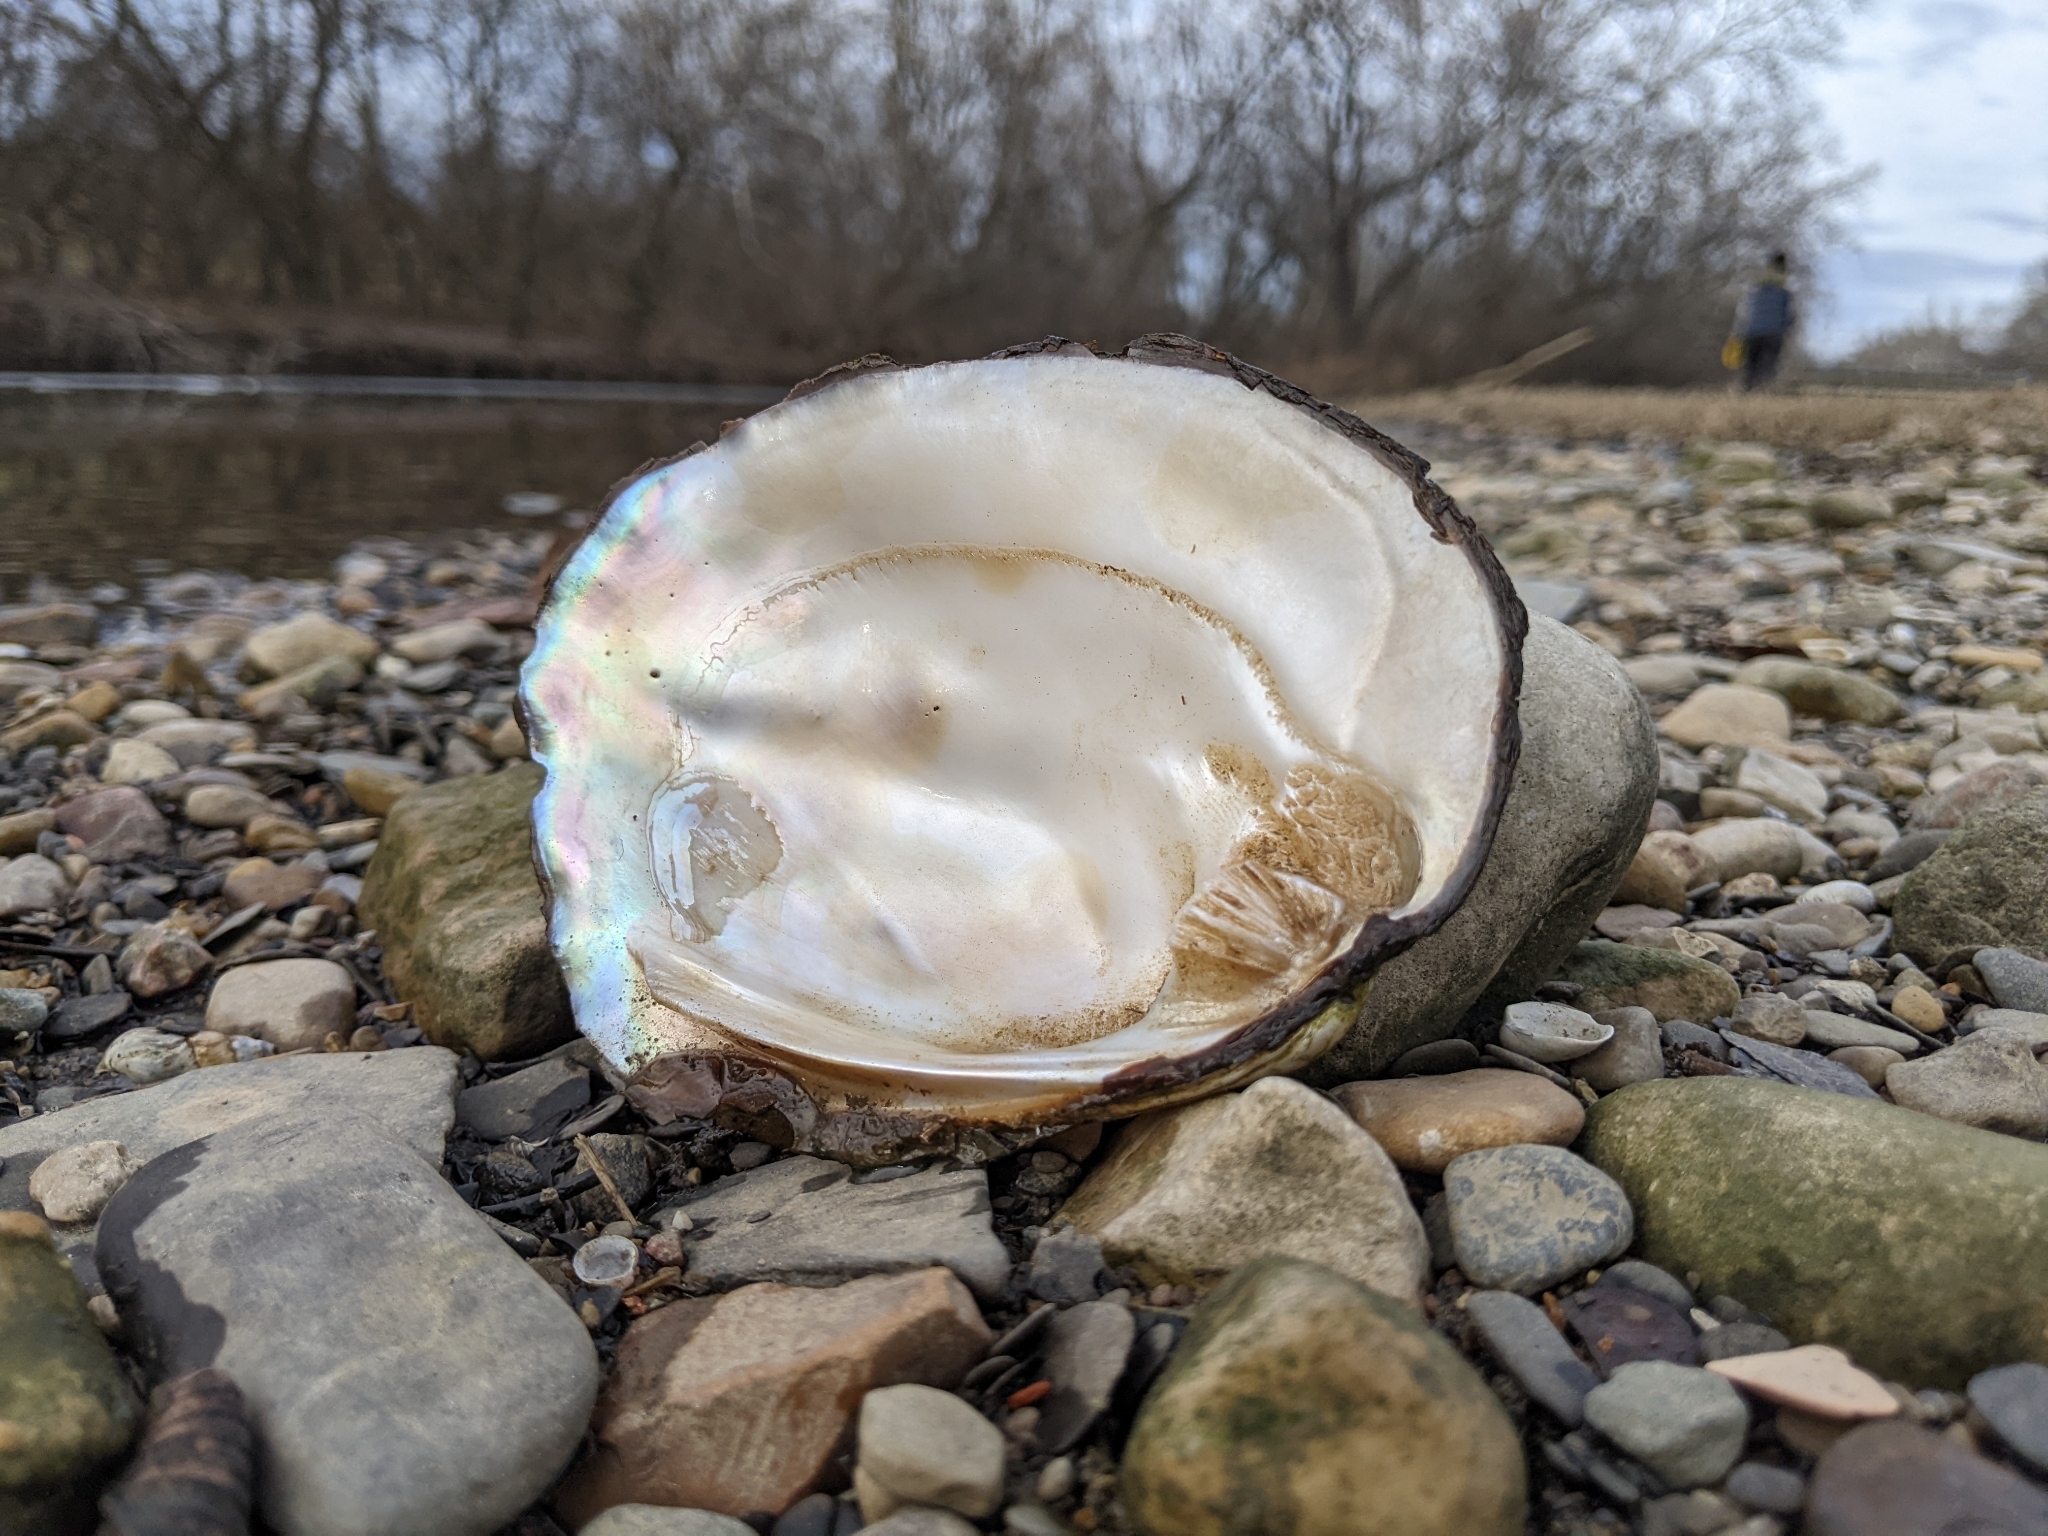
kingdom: Animalia
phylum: Mollusca
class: Bivalvia
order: Unionida
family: Unionidae
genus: Amblema
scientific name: Amblema plicata
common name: Threeridge
